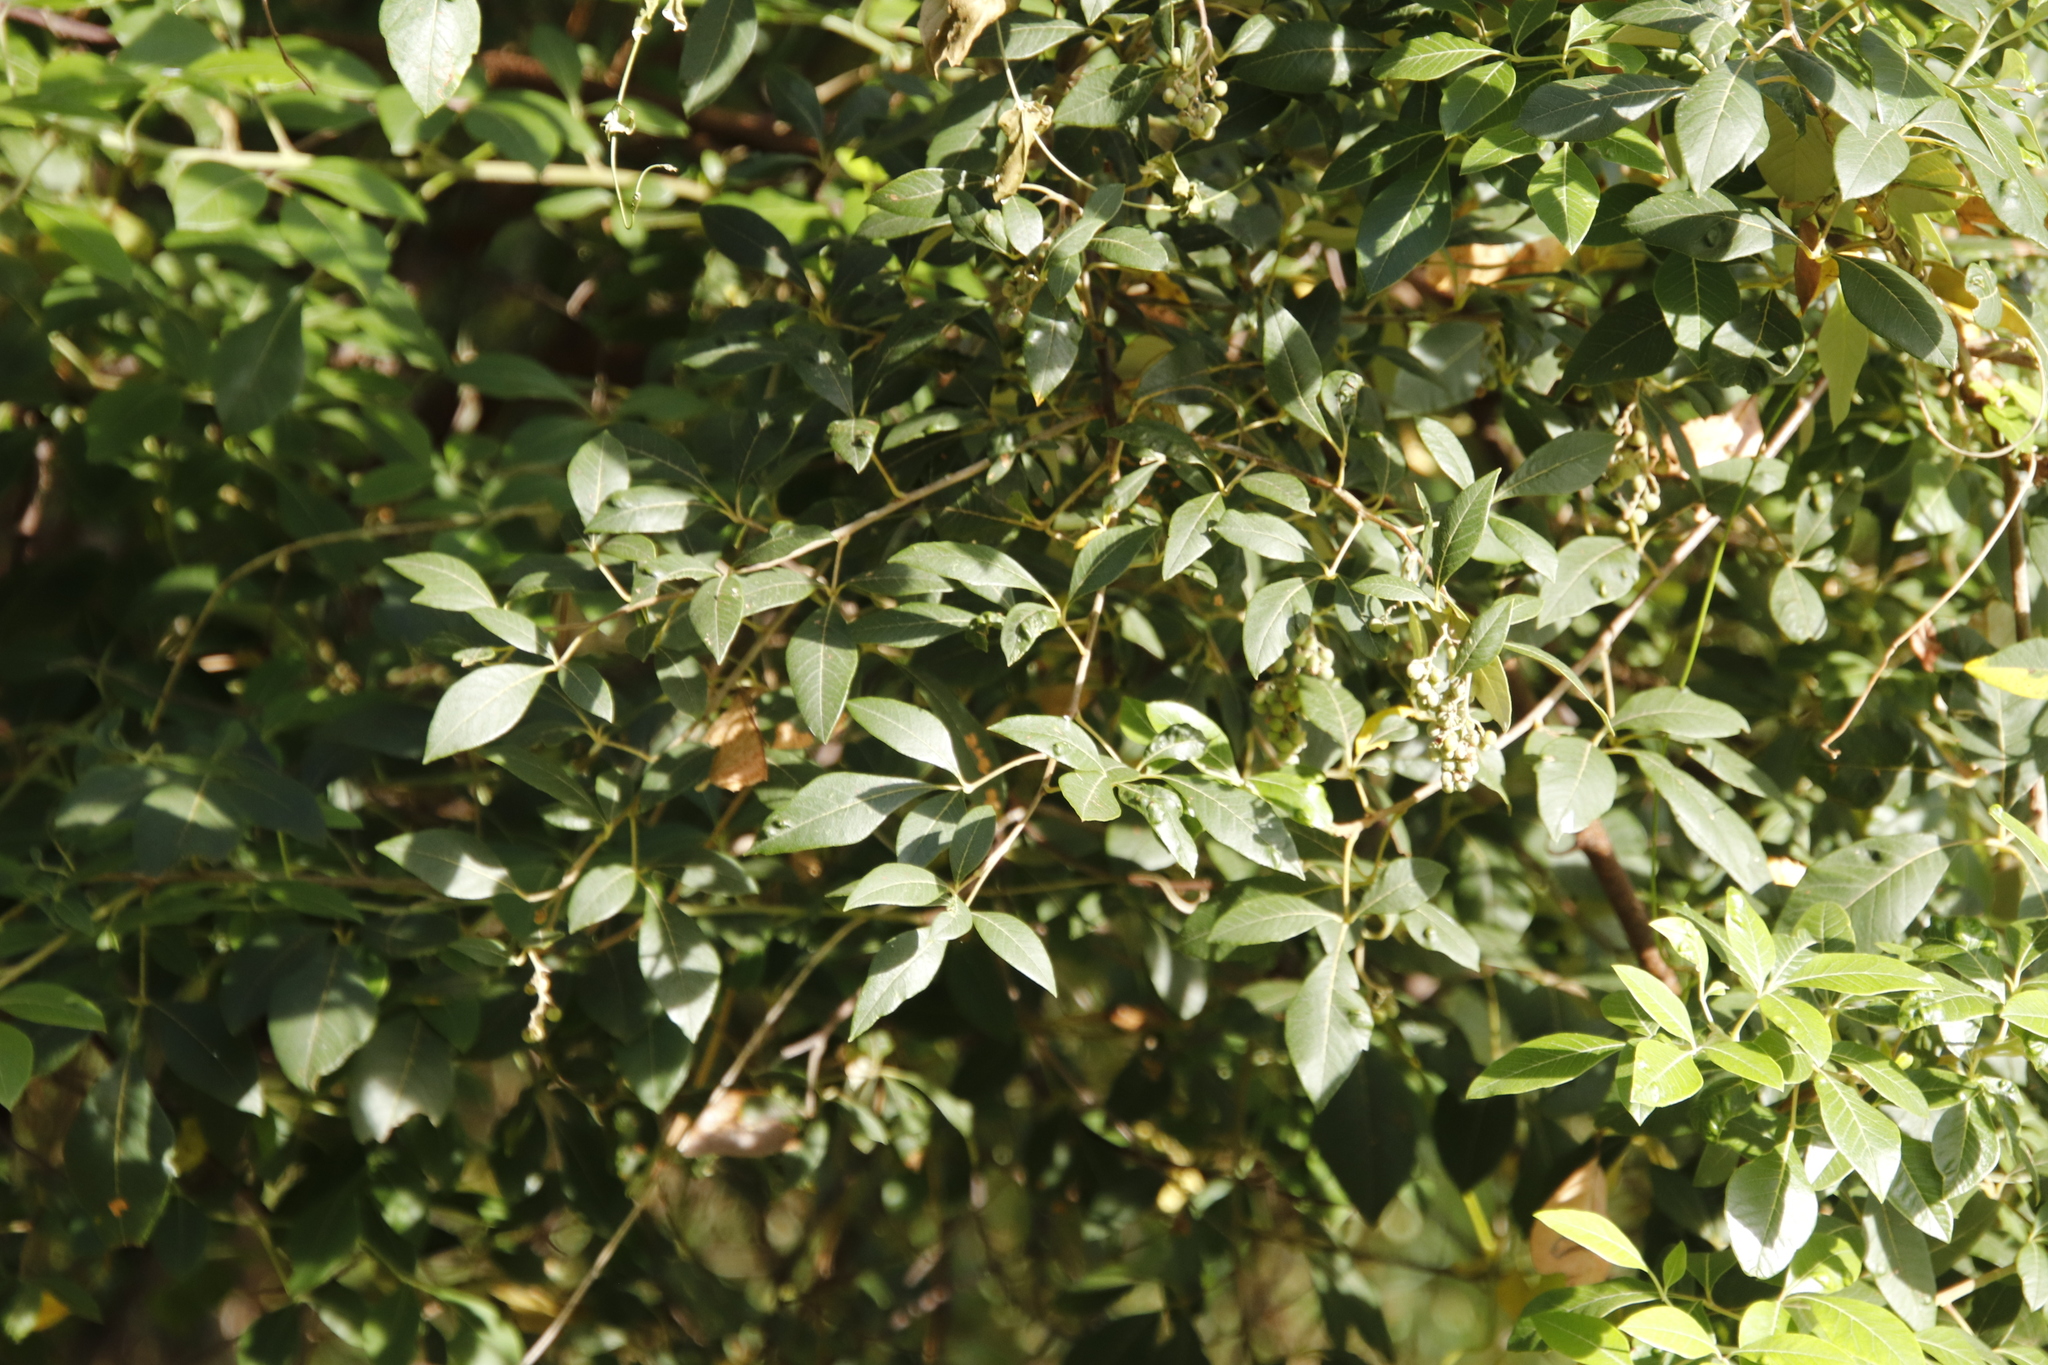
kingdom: Plantae
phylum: Tracheophyta
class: Magnoliopsida
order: Sapindales
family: Anacardiaceae
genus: Searsia
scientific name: Searsia tomentosa
